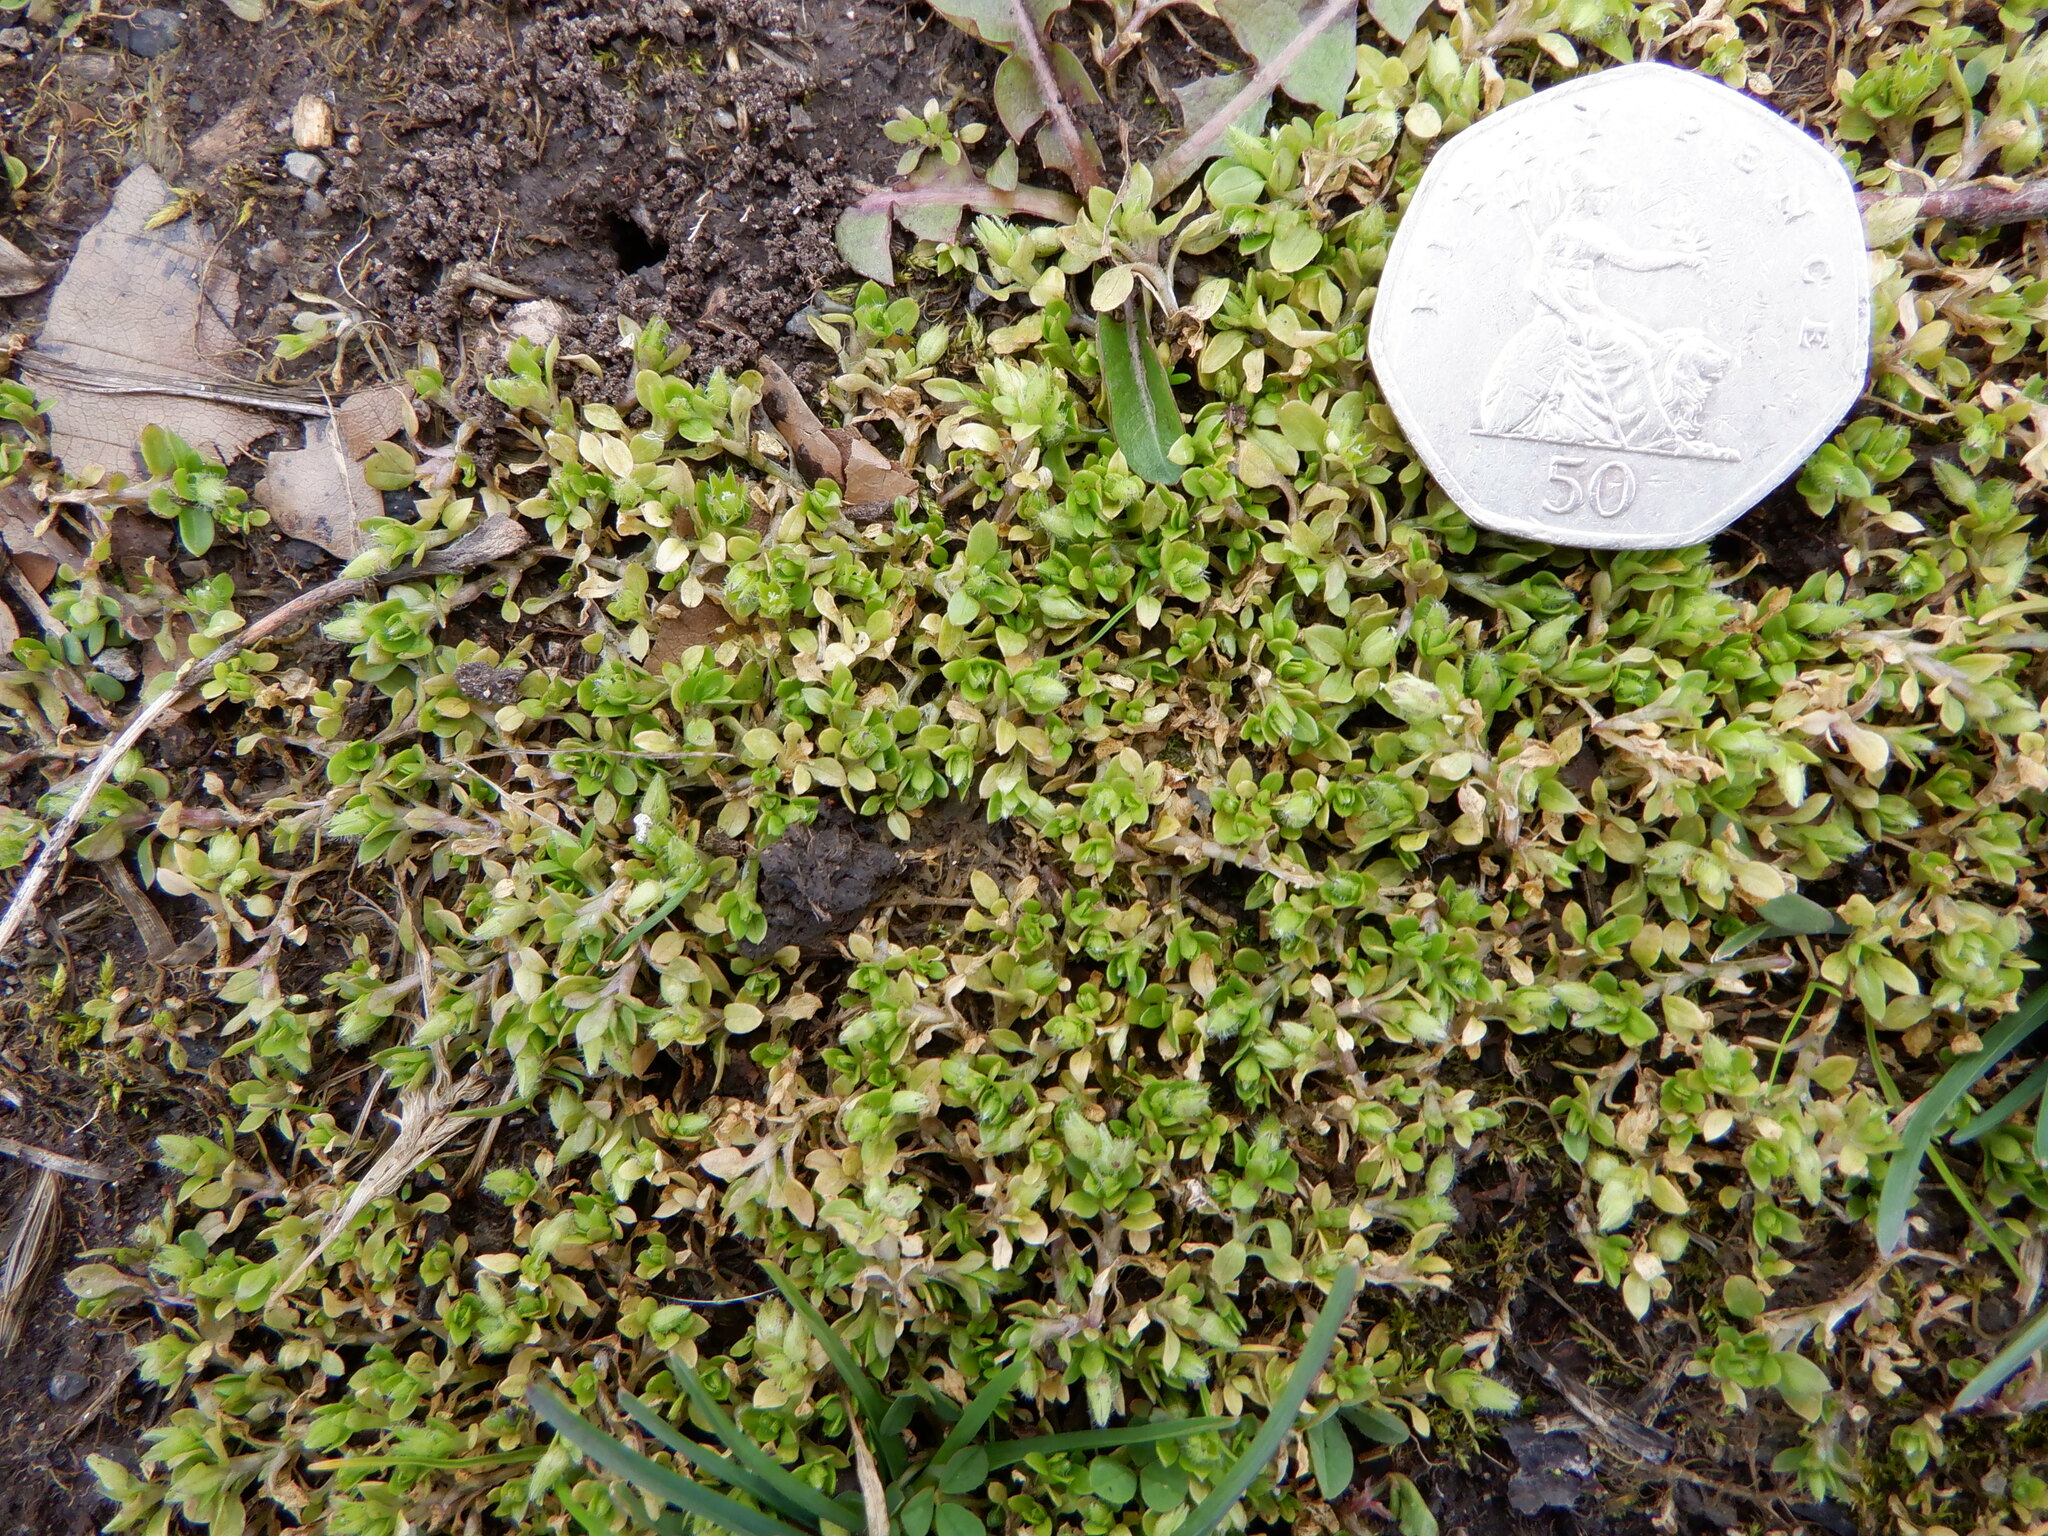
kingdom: Plantae
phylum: Tracheophyta
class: Magnoliopsida
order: Caryophyllales
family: Caryophyllaceae
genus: Stellaria
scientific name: Stellaria apetala
